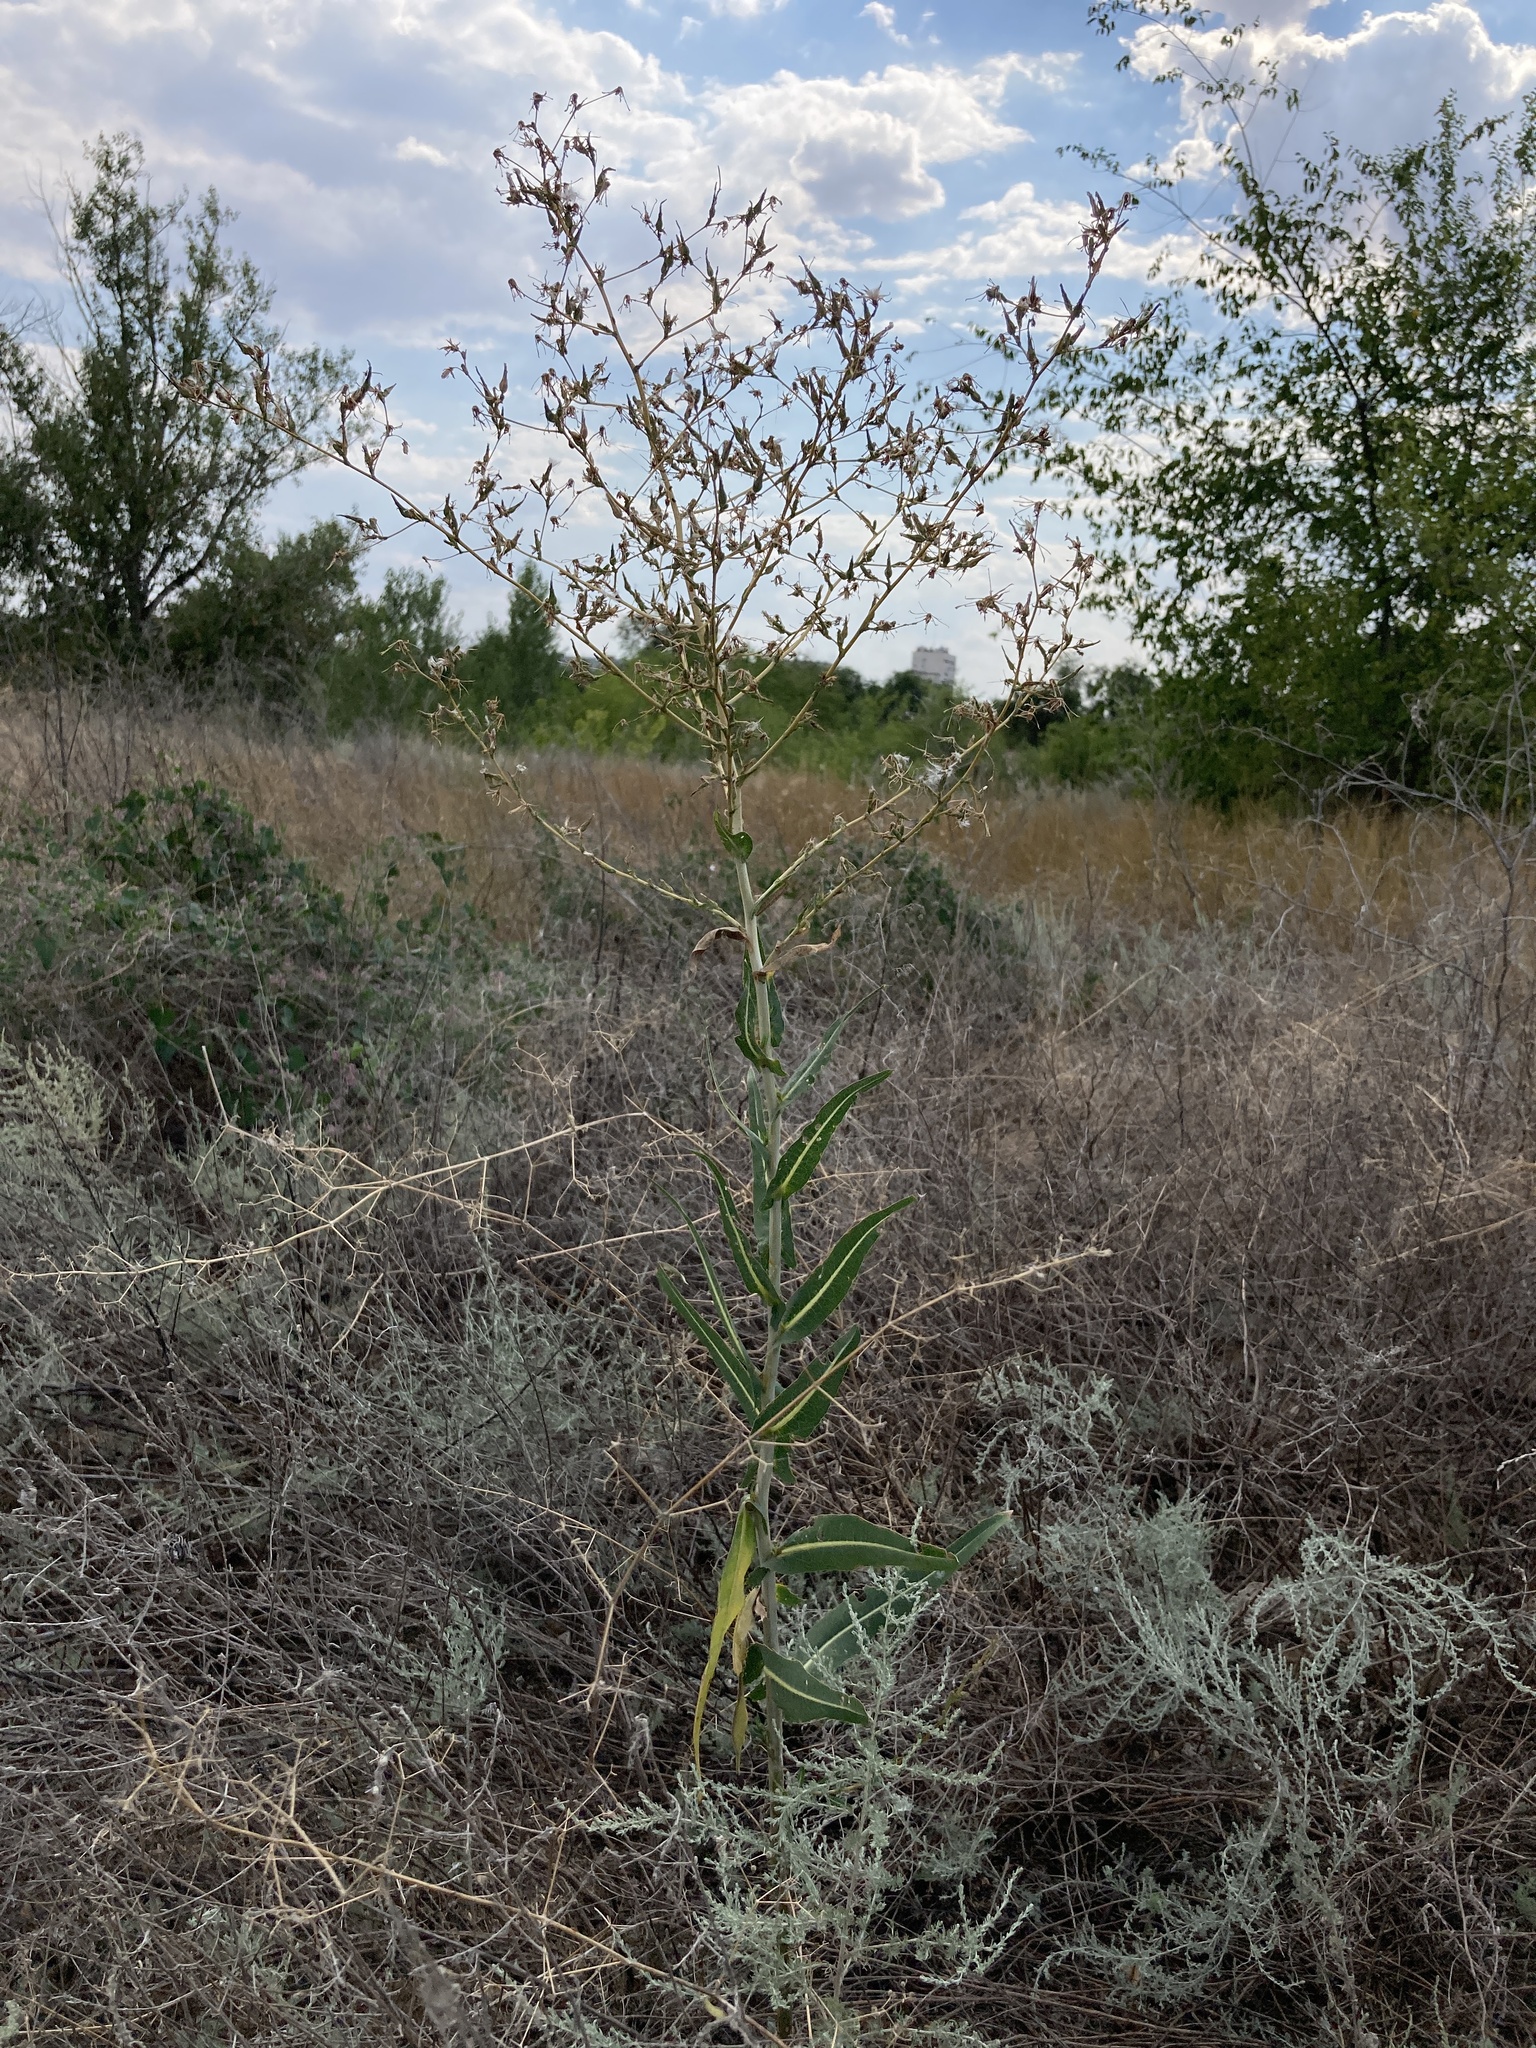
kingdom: Plantae
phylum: Tracheophyta
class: Magnoliopsida
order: Asterales
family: Asteraceae
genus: Lactuca
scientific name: Lactuca serriola
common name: Prickly lettuce
